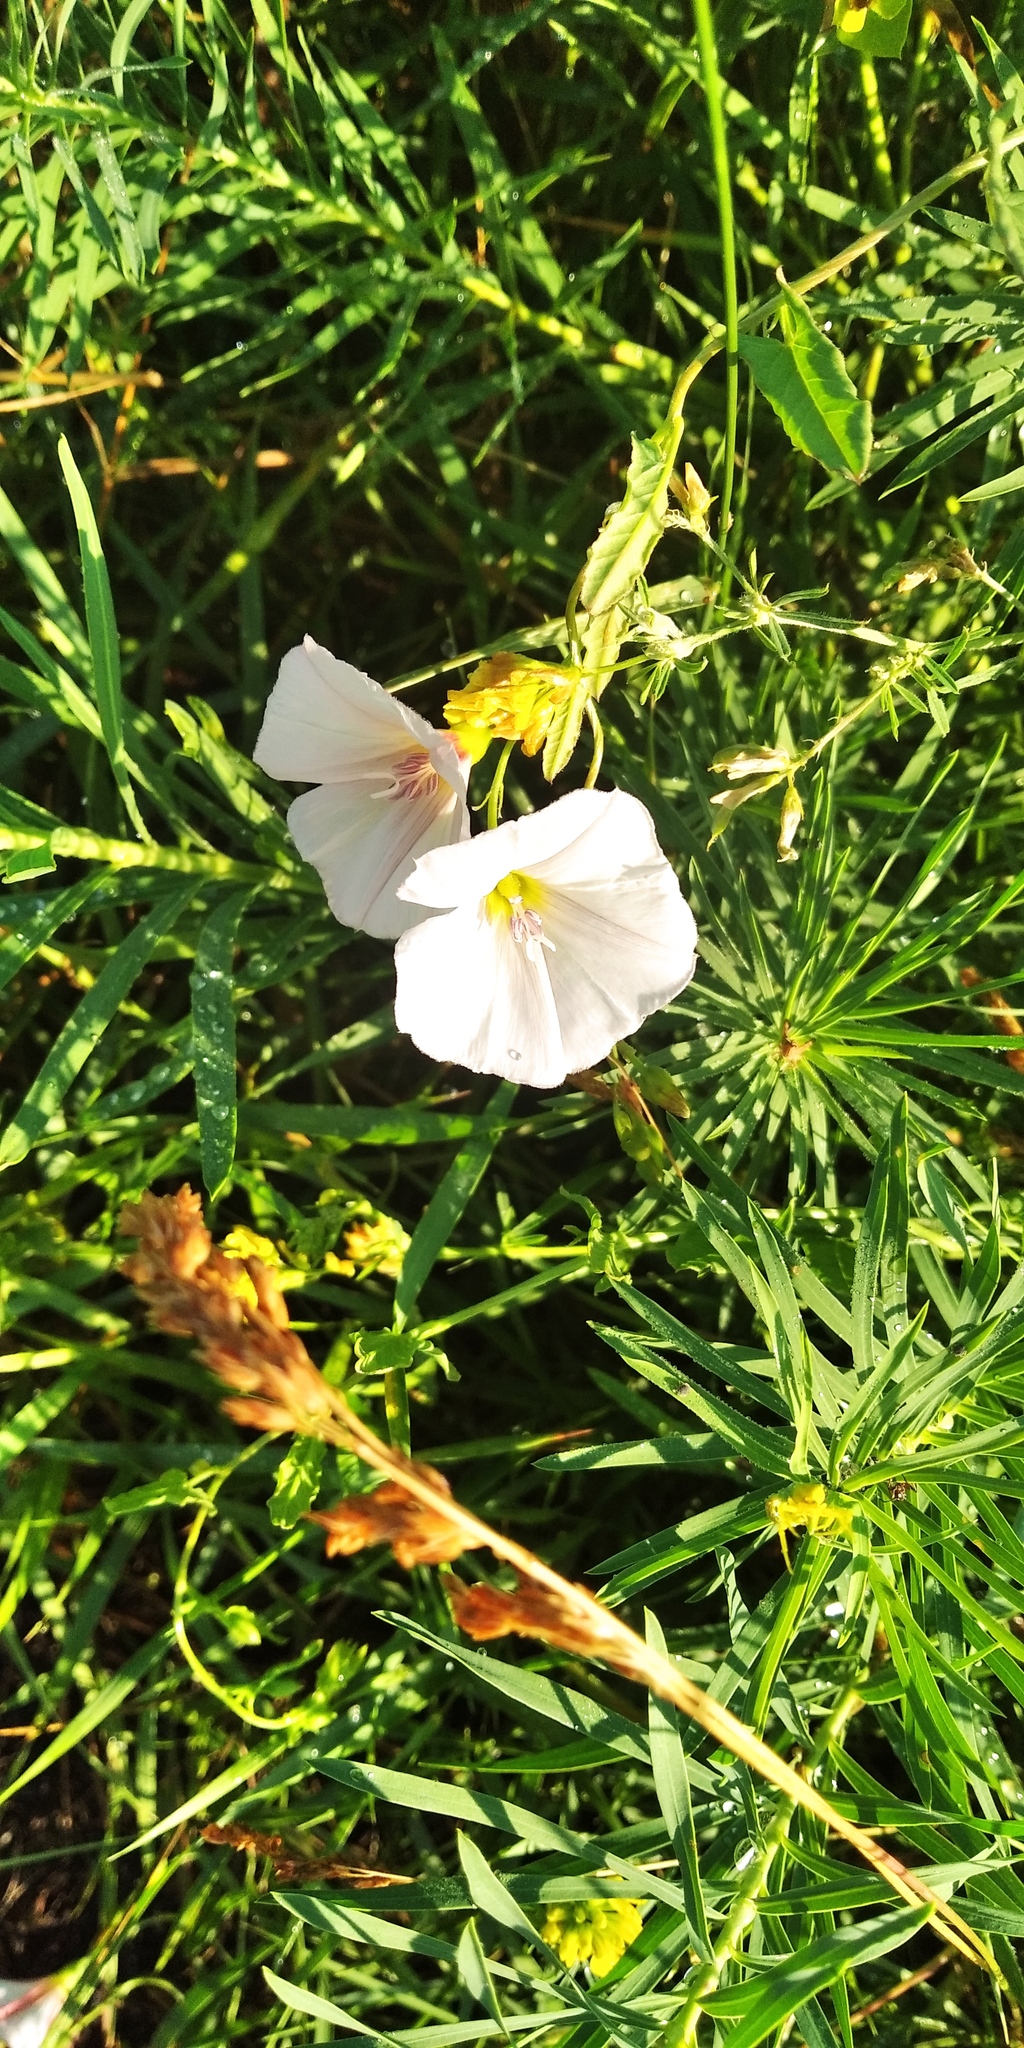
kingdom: Plantae
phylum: Tracheophyta
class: Magnoliopsida
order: Solanales
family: Convolvulaceae
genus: Convolvulus
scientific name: Convolvulus arvensis
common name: Field bindweed
